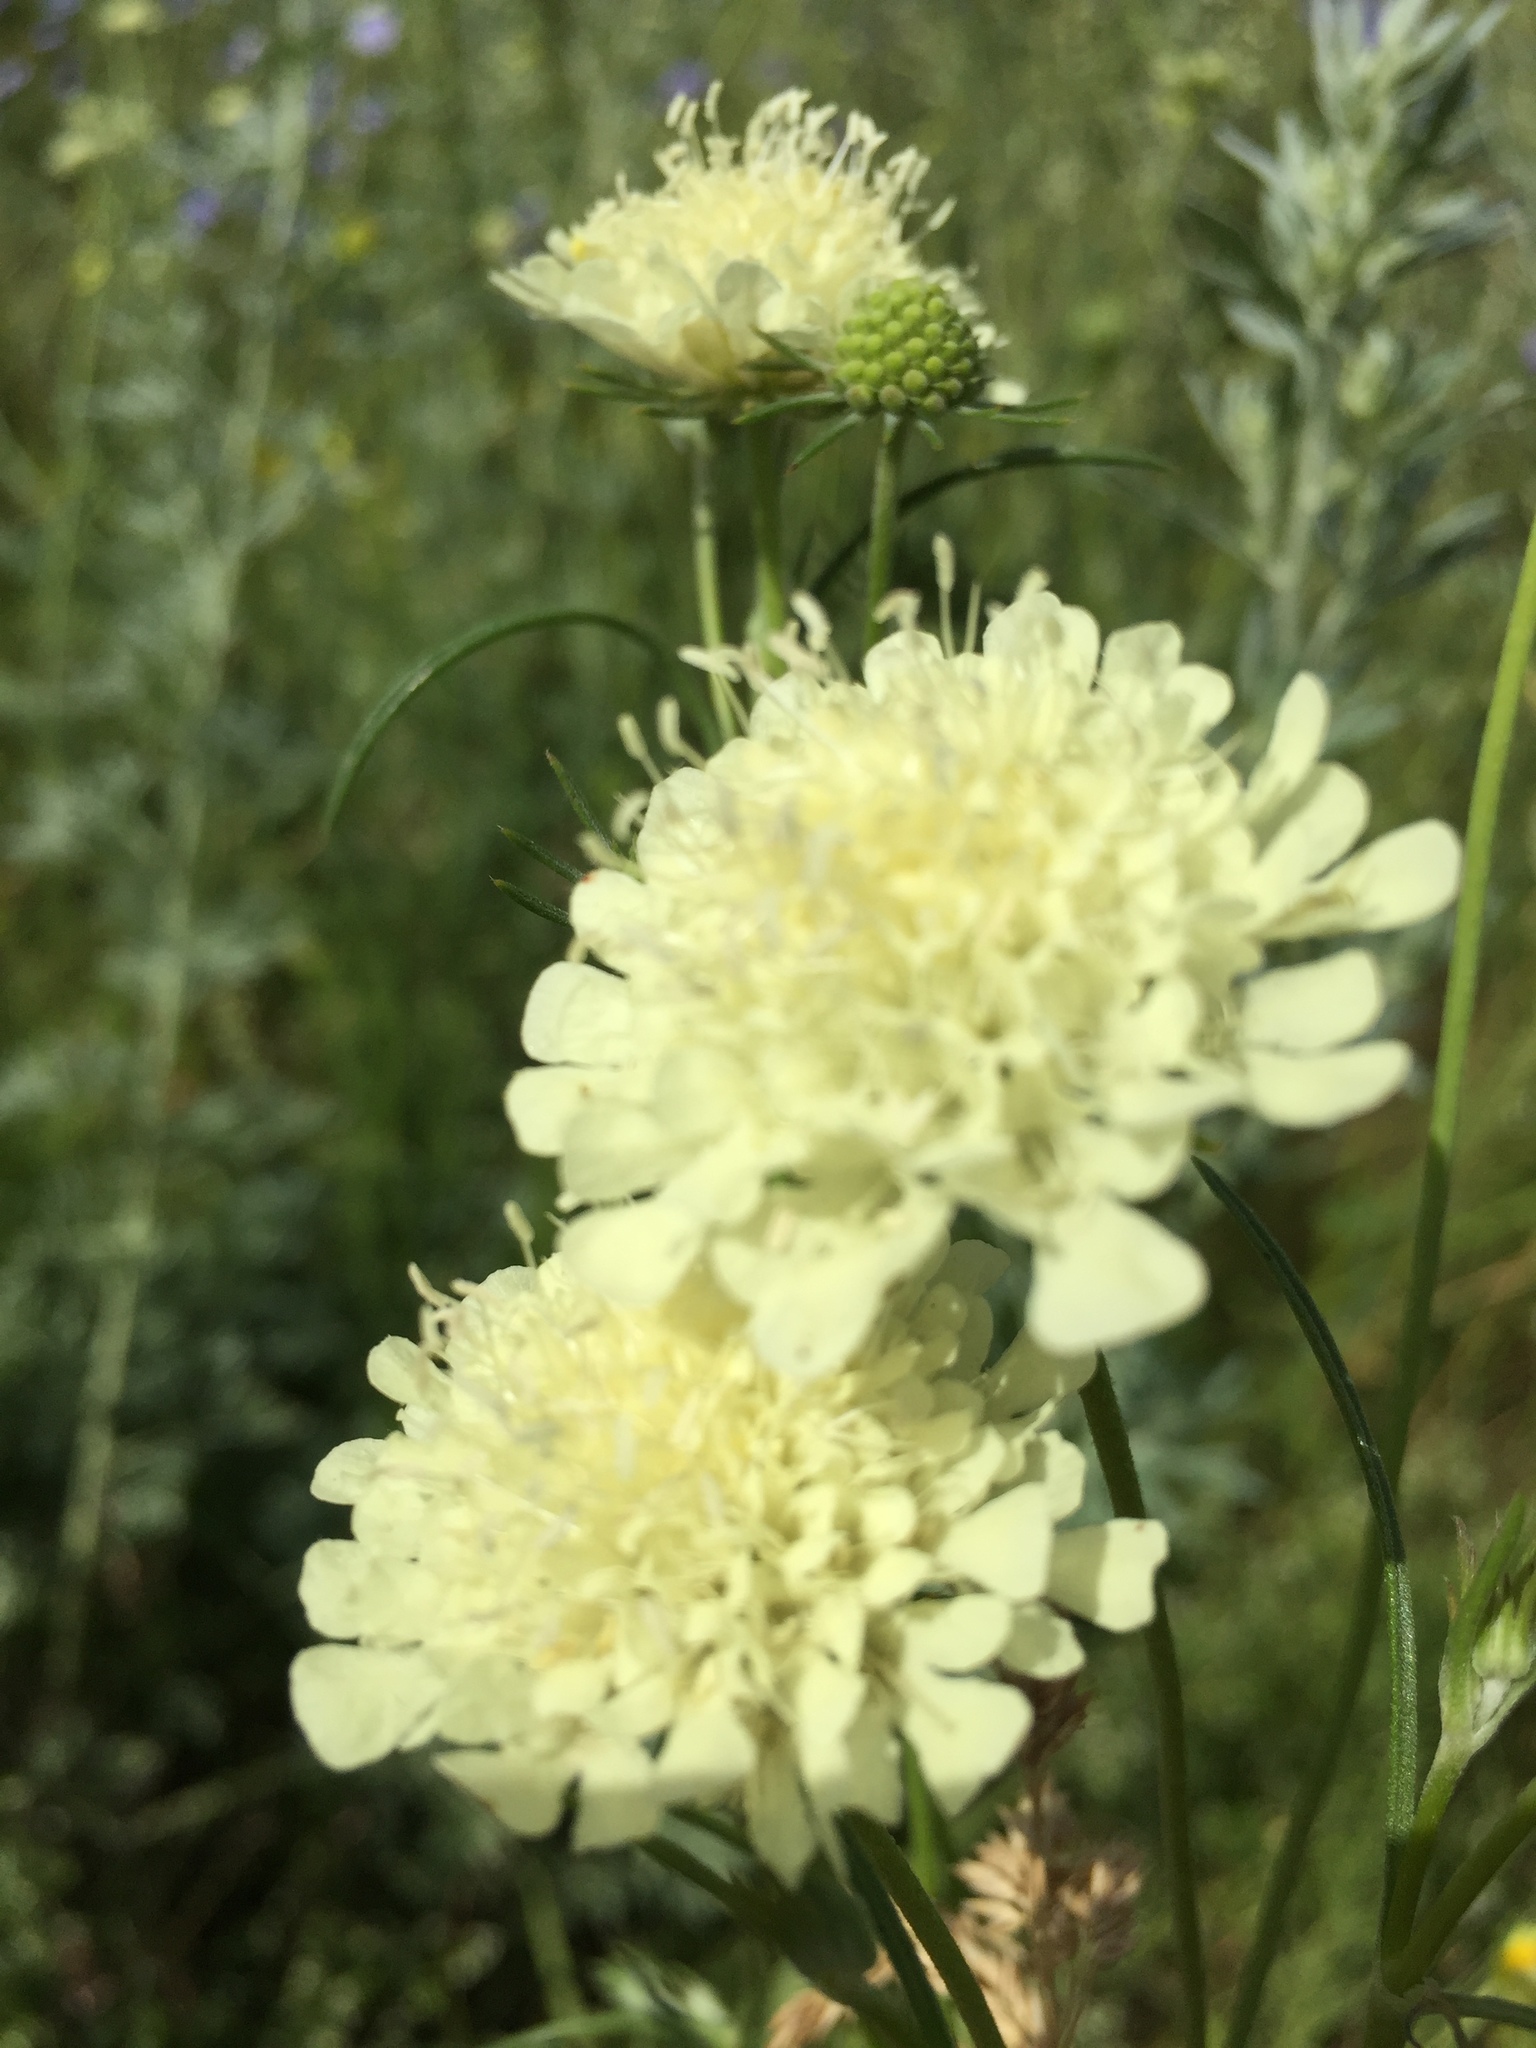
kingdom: Plantae
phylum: Tracheophyta
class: Magnoliopsida
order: Dipsacales
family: Caprifoliaceae
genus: Scabiosa
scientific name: Scabiosa ochroleuca
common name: Cream pincushions
